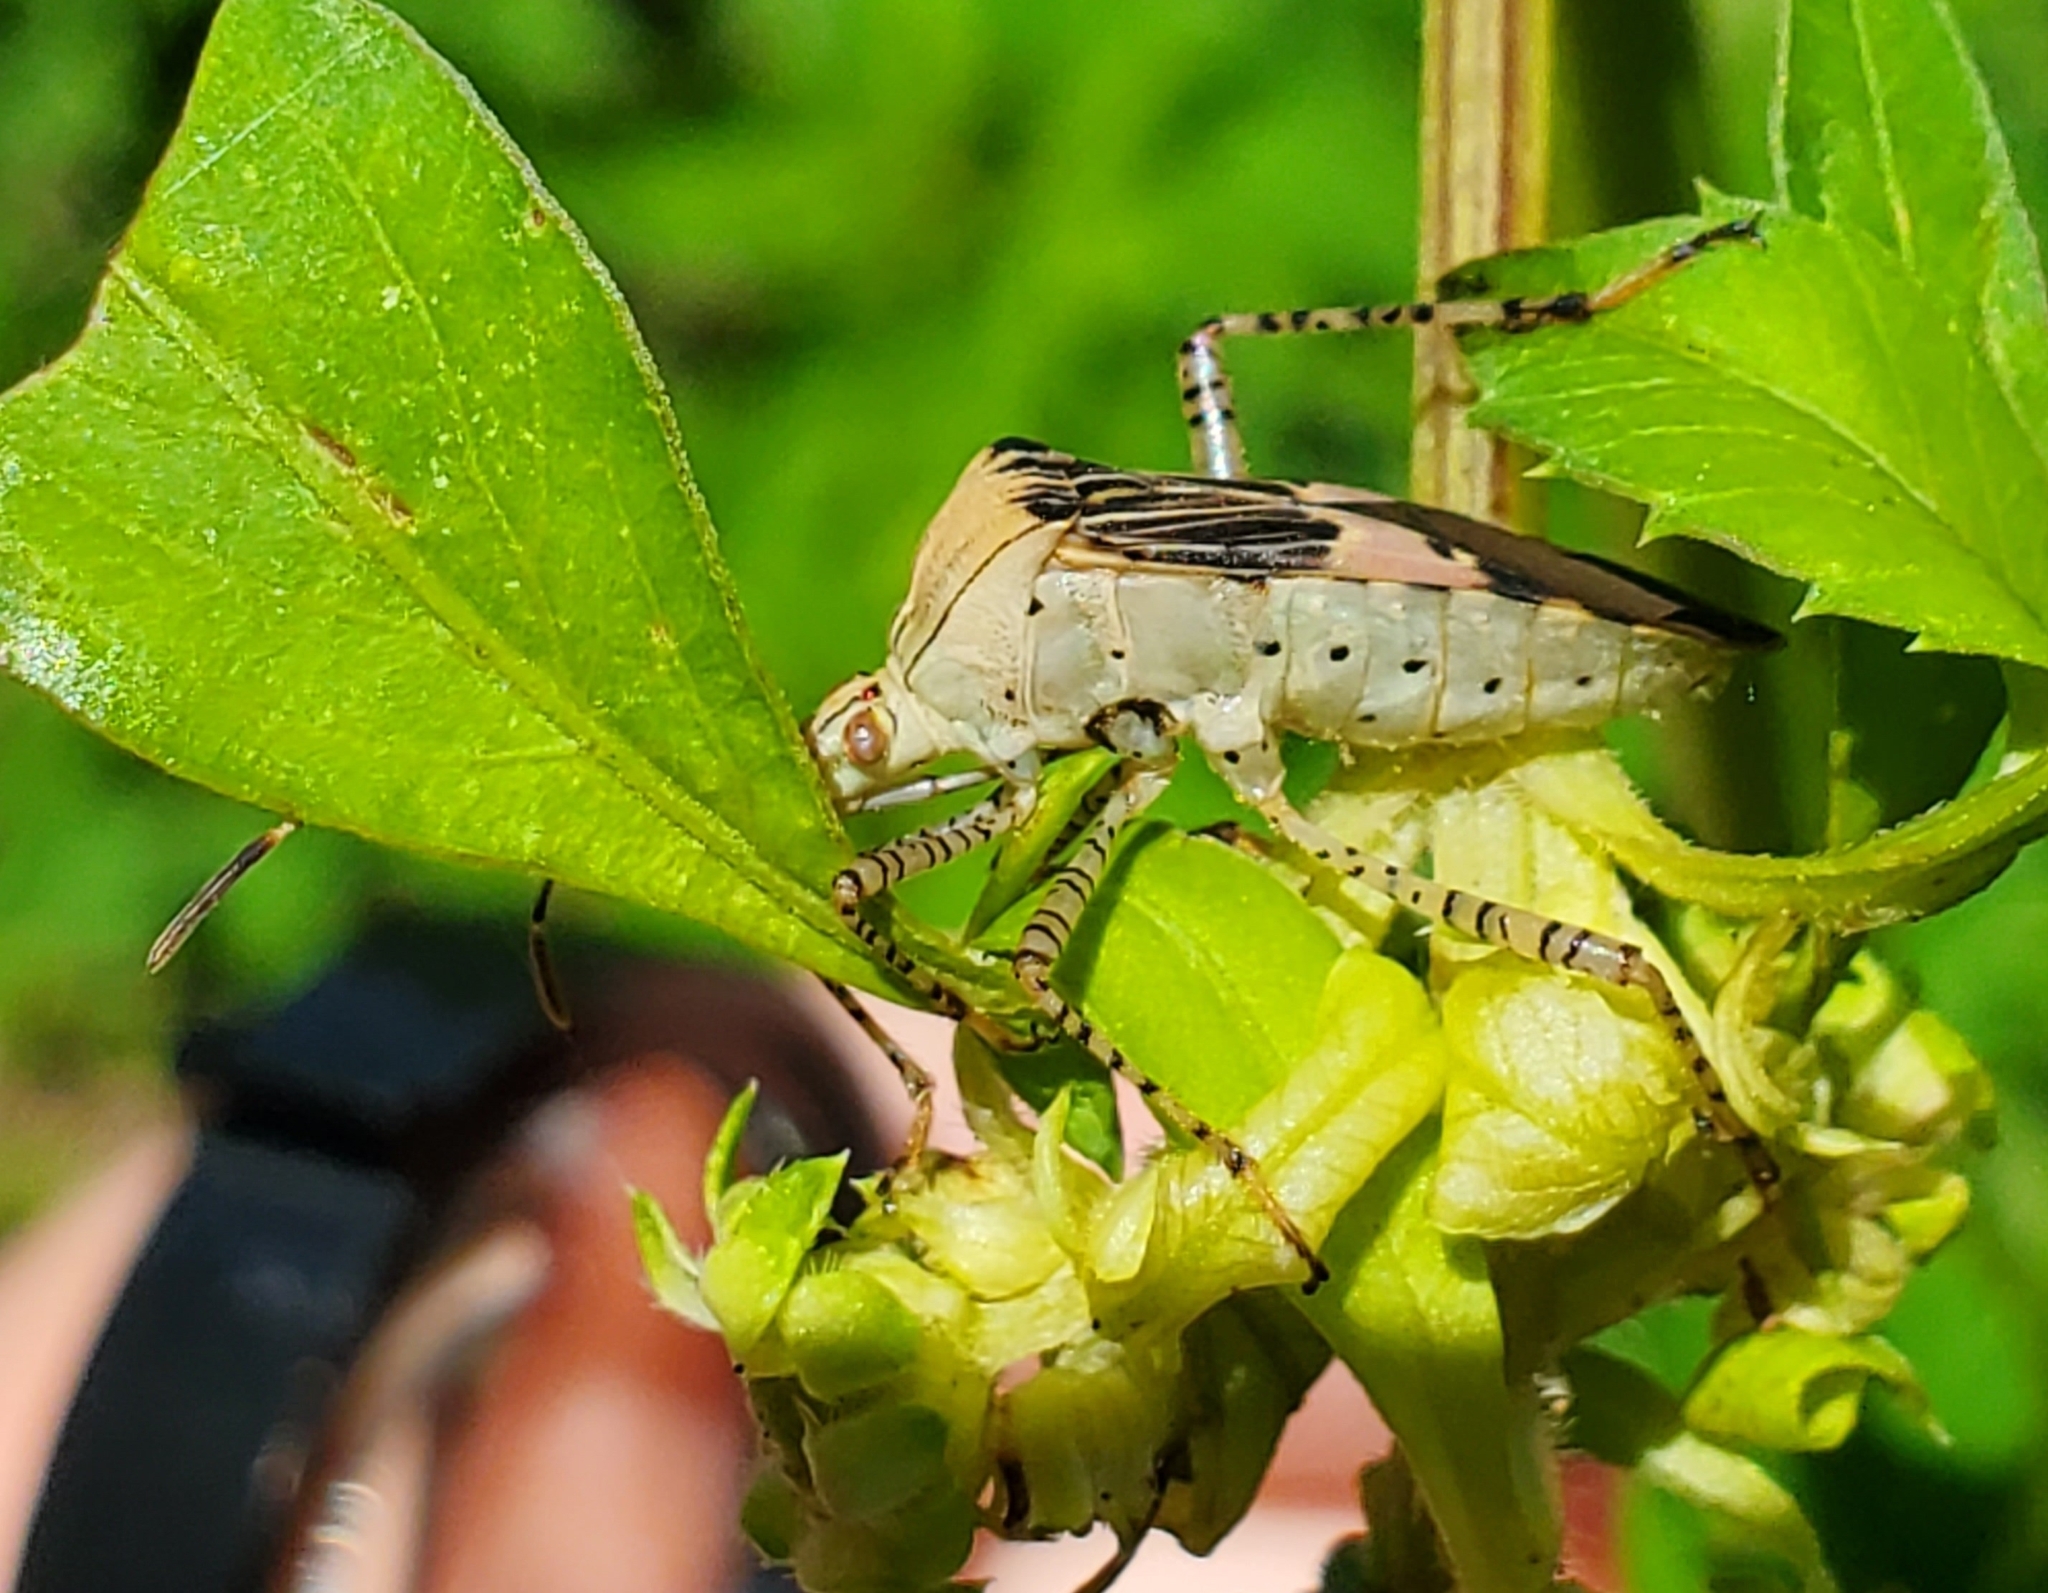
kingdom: Animalia
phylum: Arthropoda
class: Insecta
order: Hemiptera
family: Coreidae
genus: Hypselonotus
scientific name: Hypselonotus punctiventris
